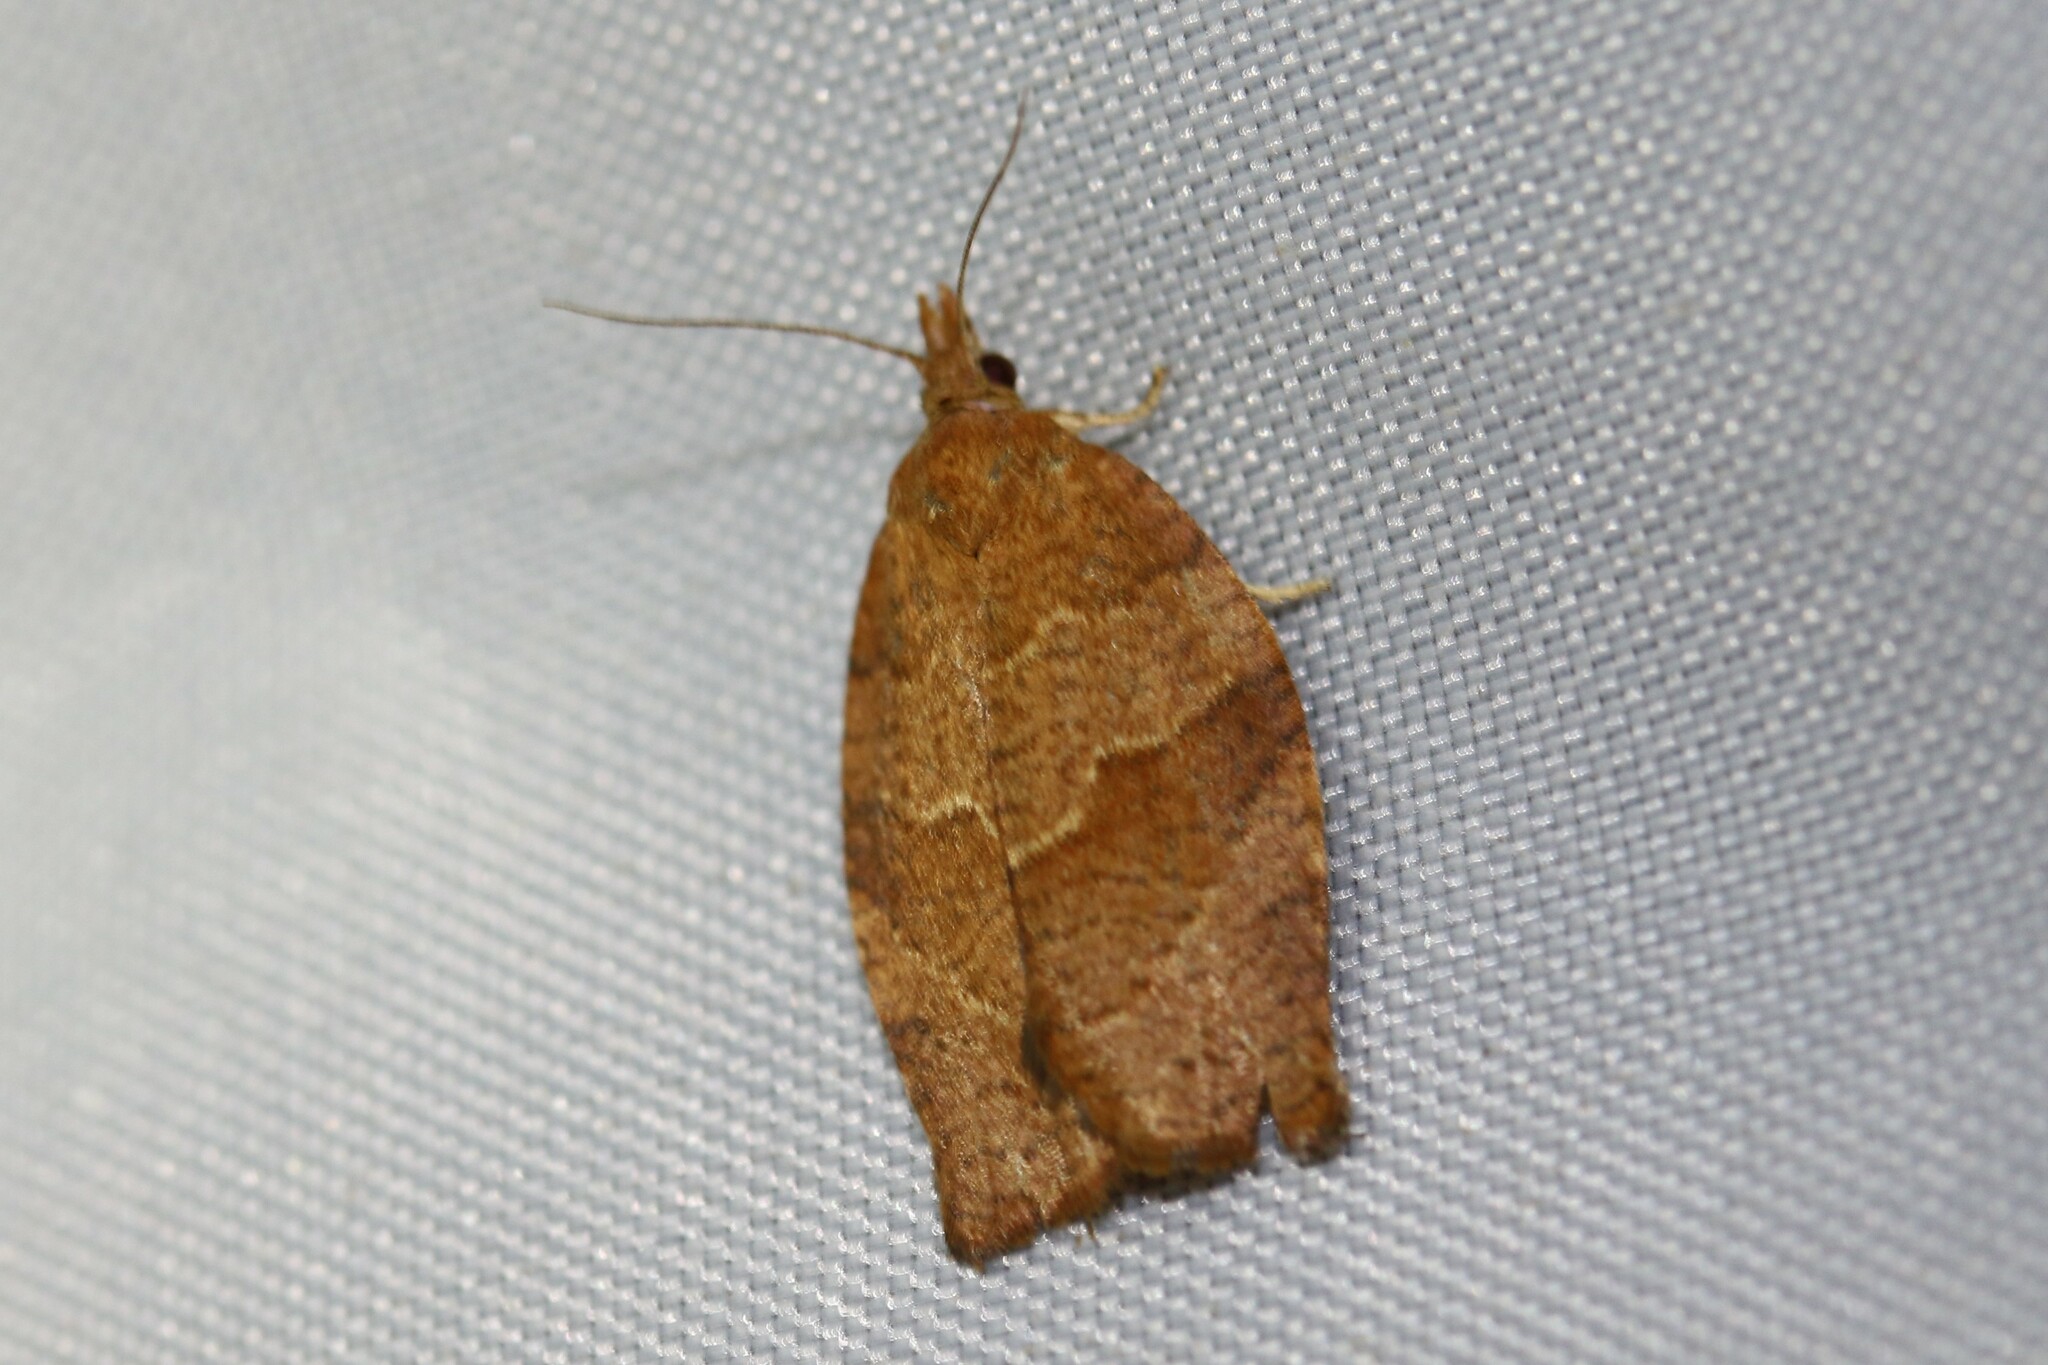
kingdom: Animalia
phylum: Arthropoda
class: Insecta
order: Lepidoptera
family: Tortricidae
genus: Pandemis
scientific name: Pandemis heparana
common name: Dark fruit-tree tortrix
